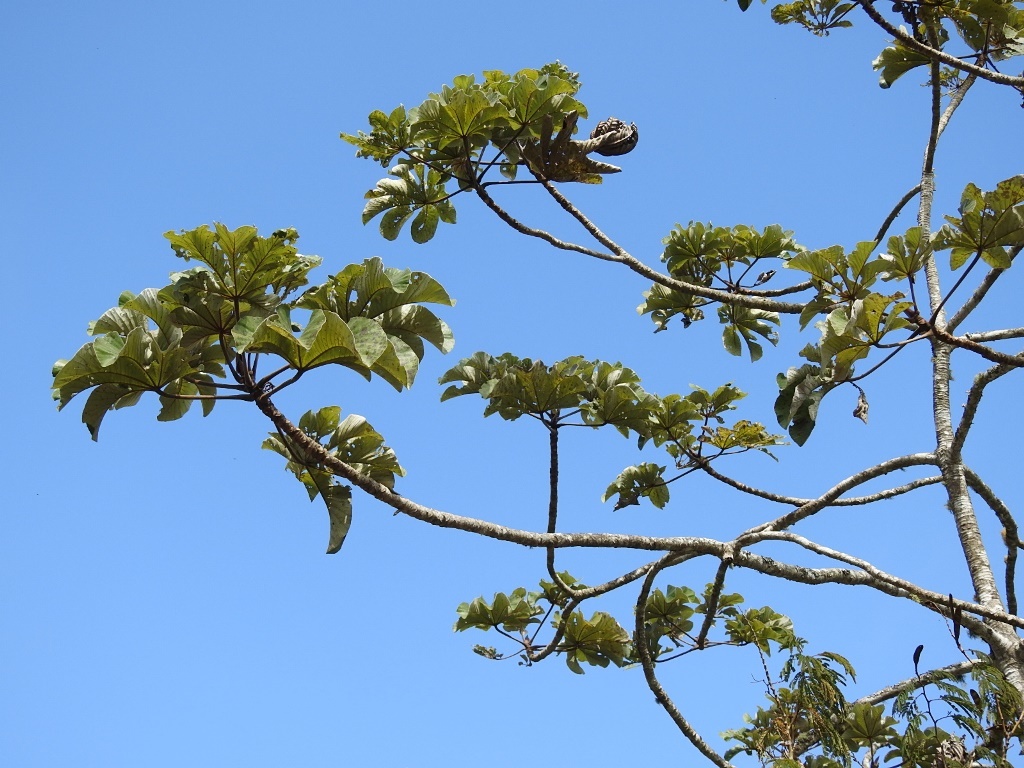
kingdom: Plantae
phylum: Tracheophyta
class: Magnoliopsida
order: Rosales
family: Urticaceae
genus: Cecropia
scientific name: Cecropia peltata
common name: Trumpet-tree
